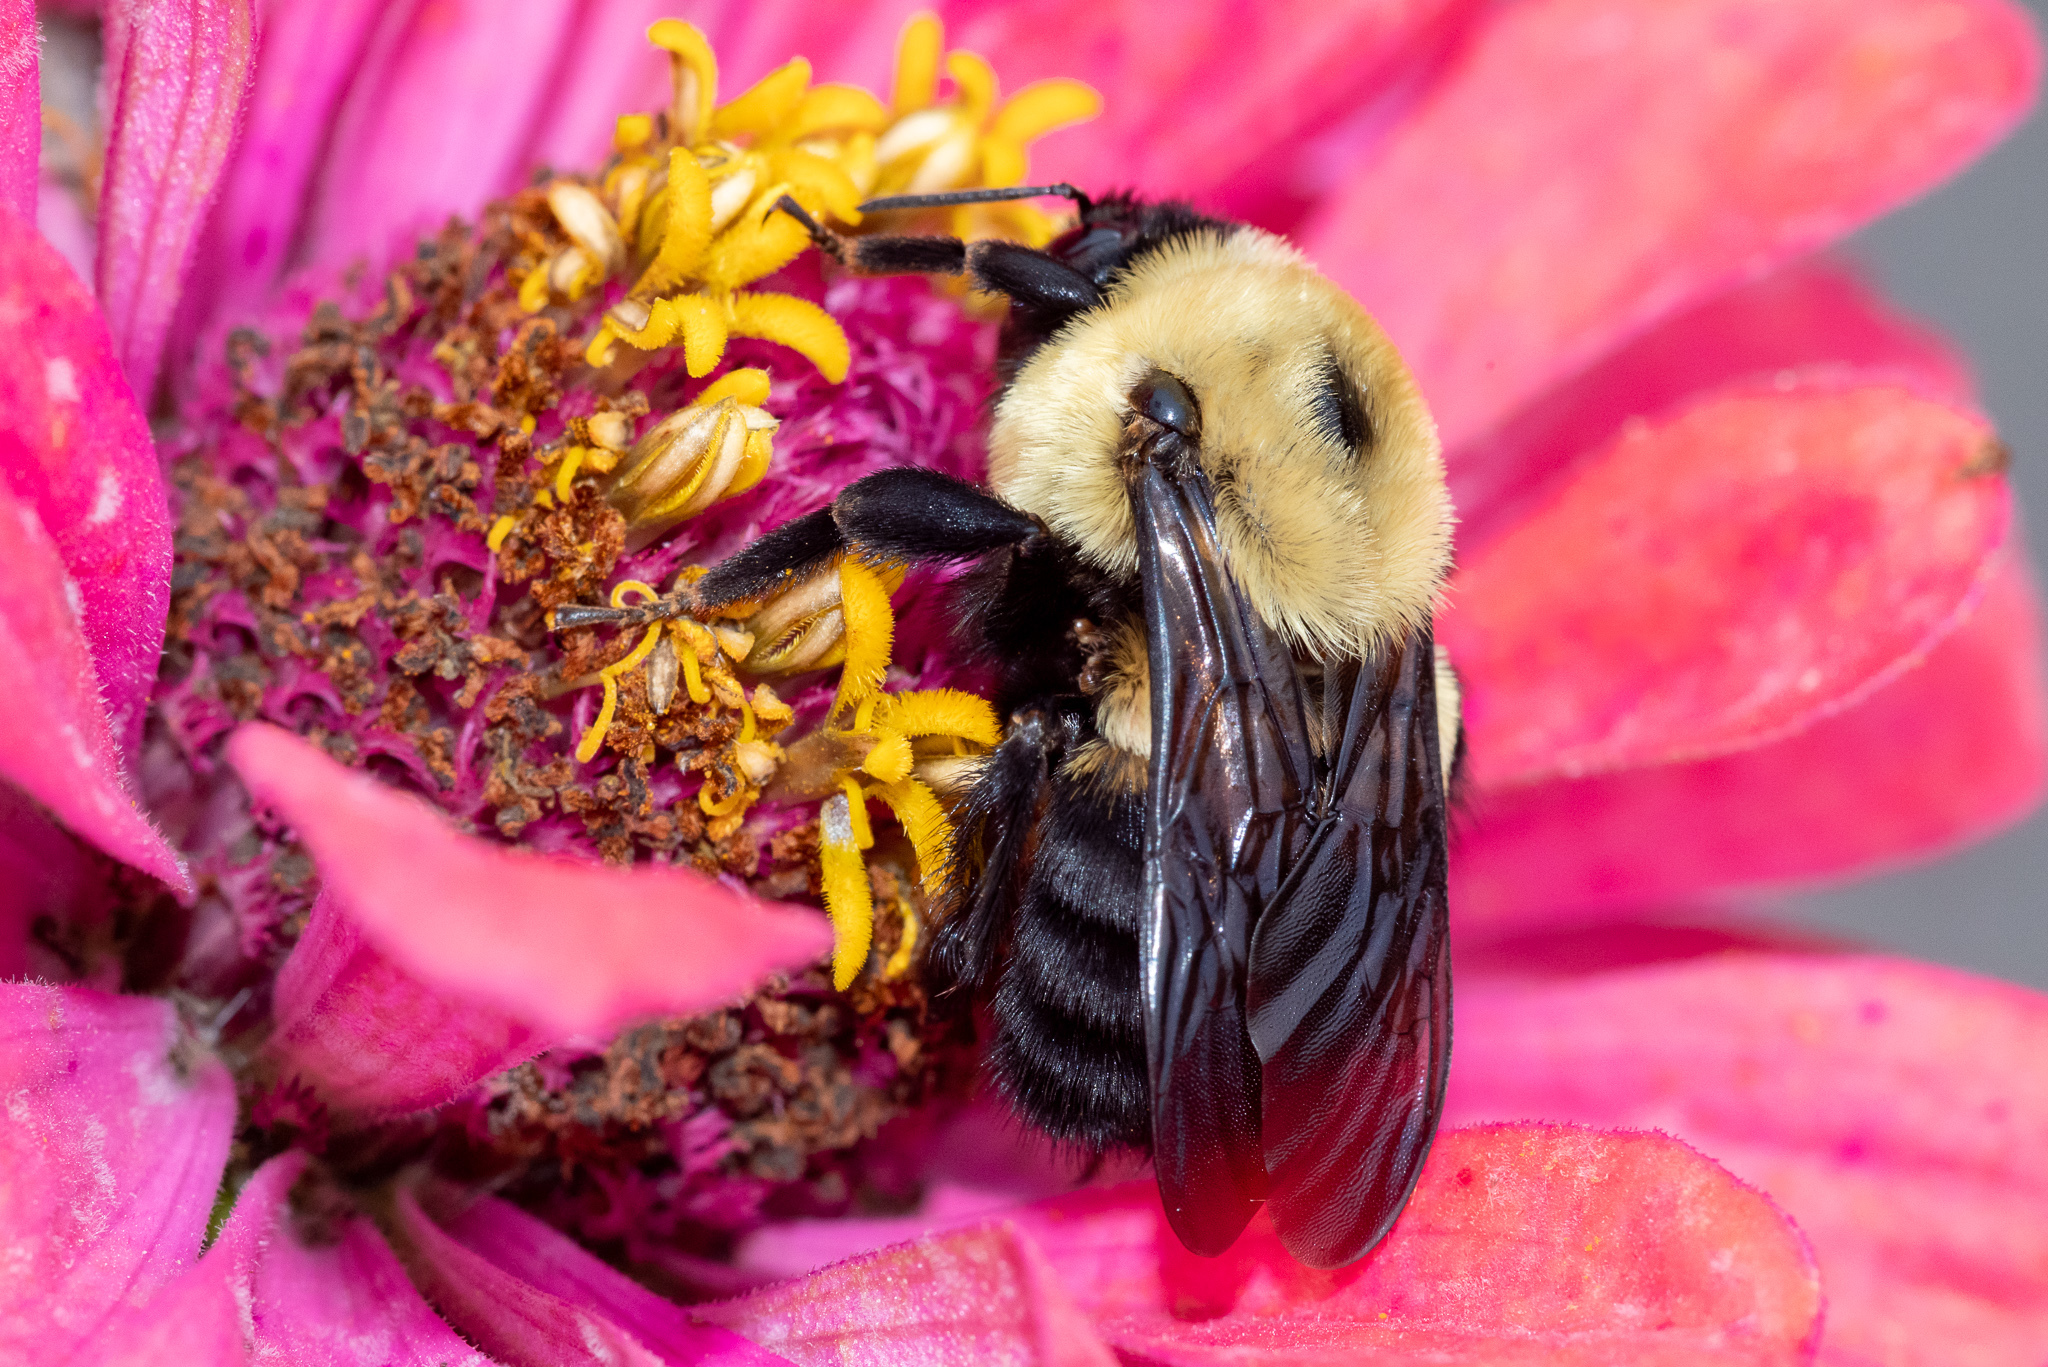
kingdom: Animalia
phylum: Arthropoda
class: Insecta
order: Hymenoptera
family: Apidae
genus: Bombus
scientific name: Bombus griseocollis
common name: Brown-belted bumble bee
